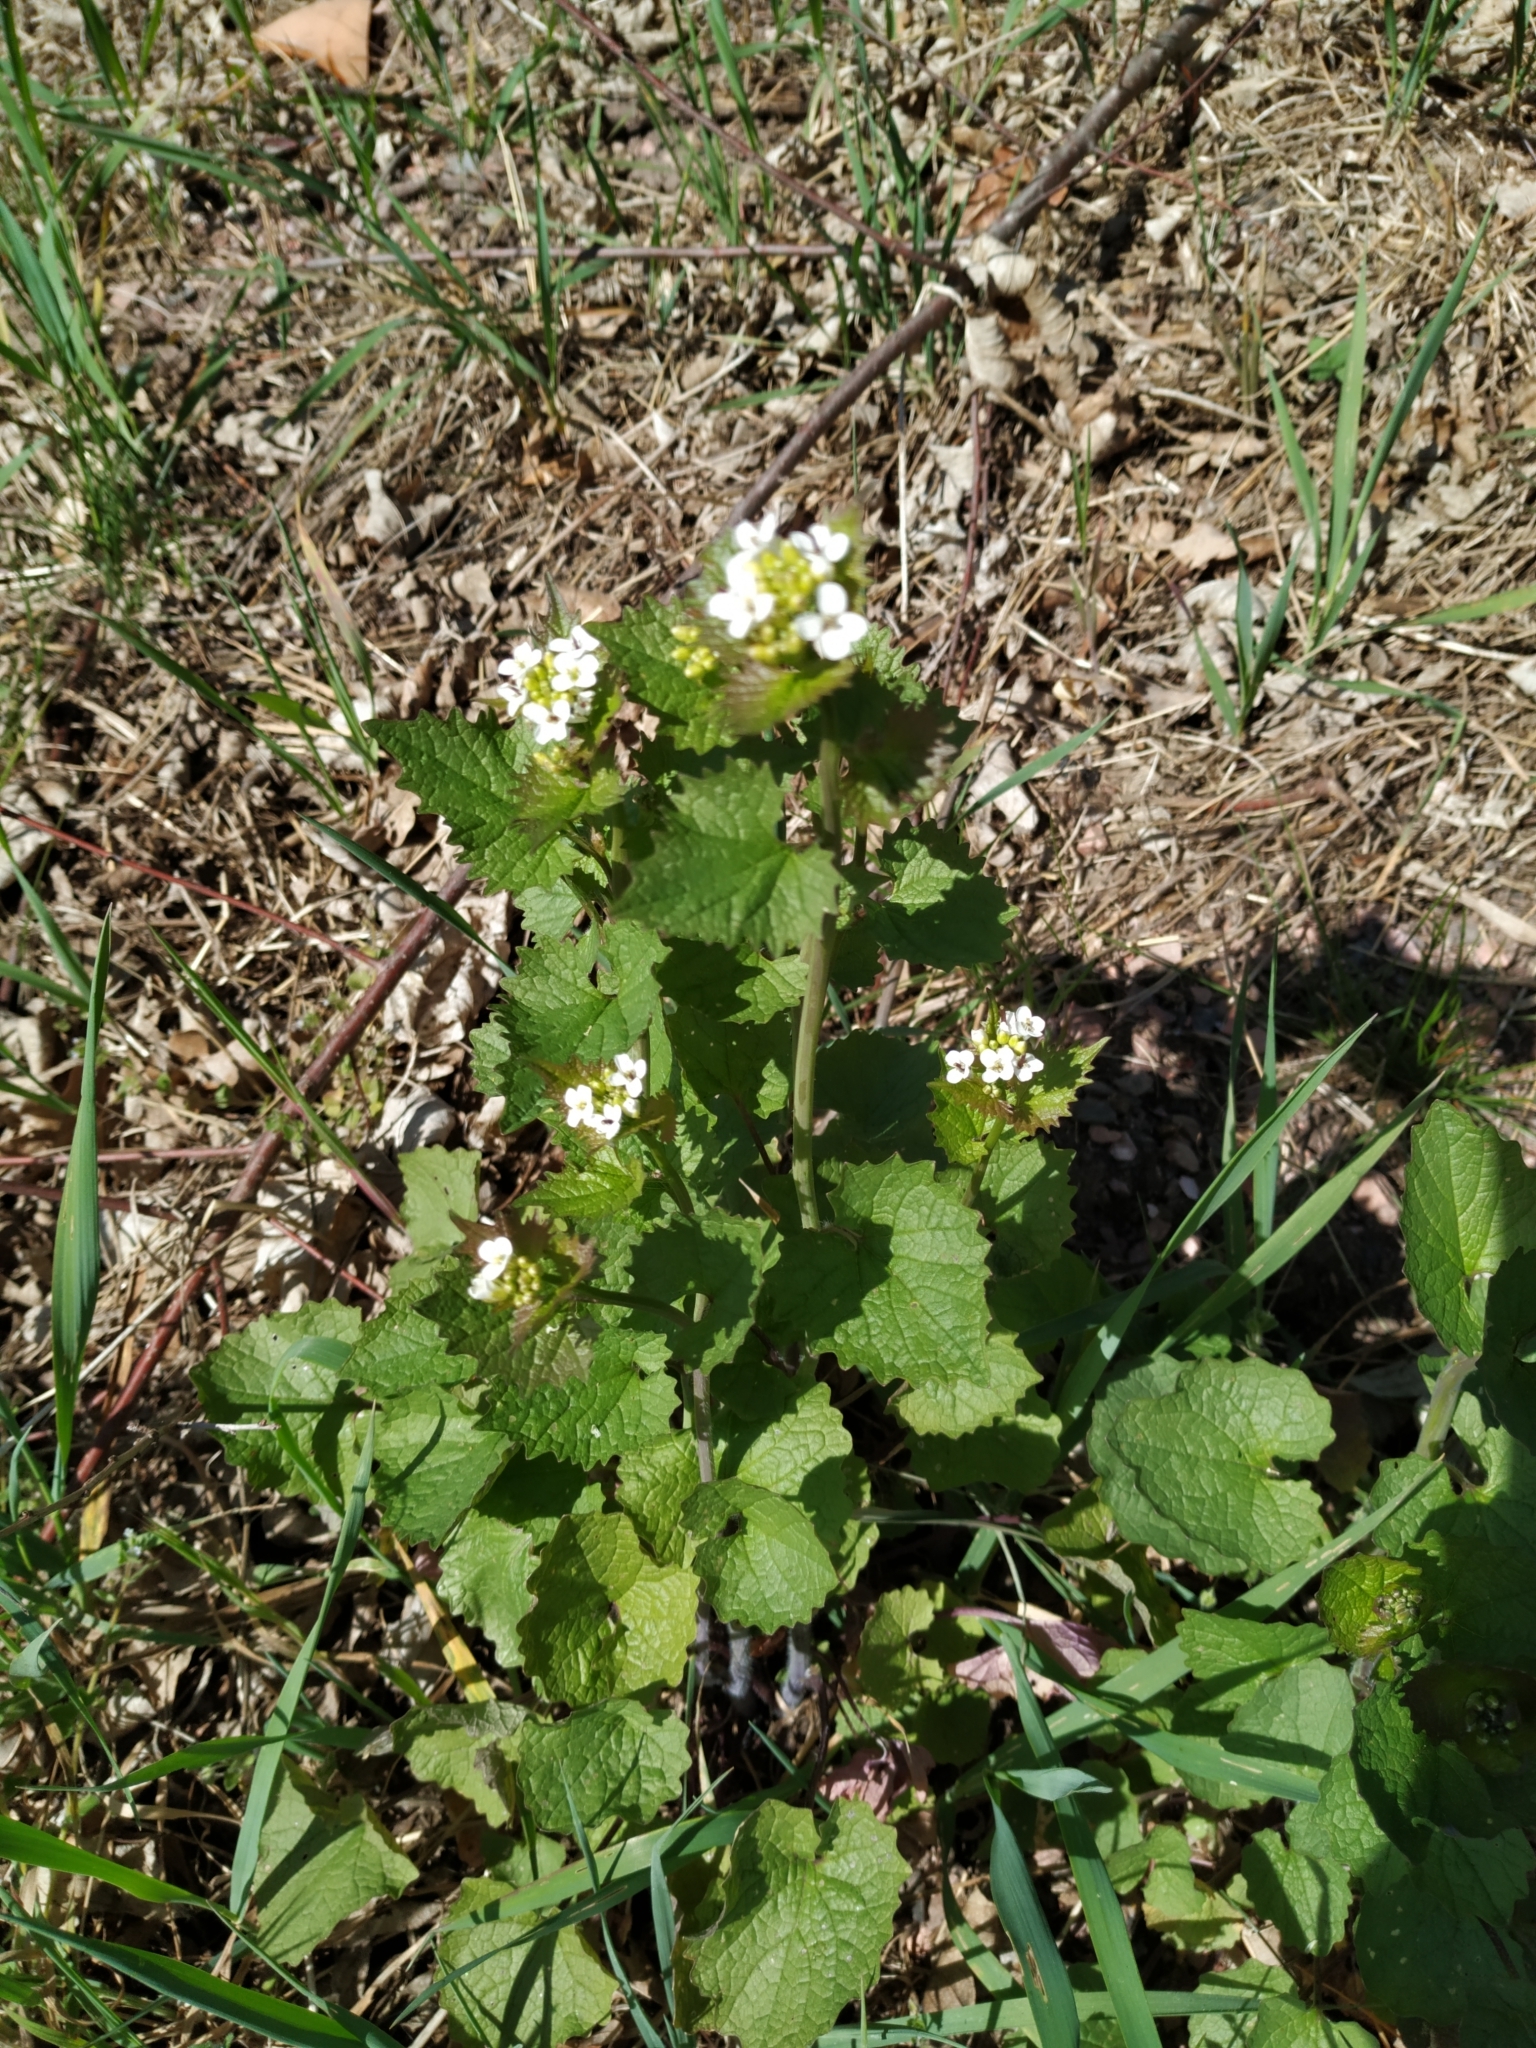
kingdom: Plantae
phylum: Tracheophyta
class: Magnoliopsida
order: Brassicales
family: Brassicaceae
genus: Alliaria
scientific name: Alliaria petiolata
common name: Garlic mustard
